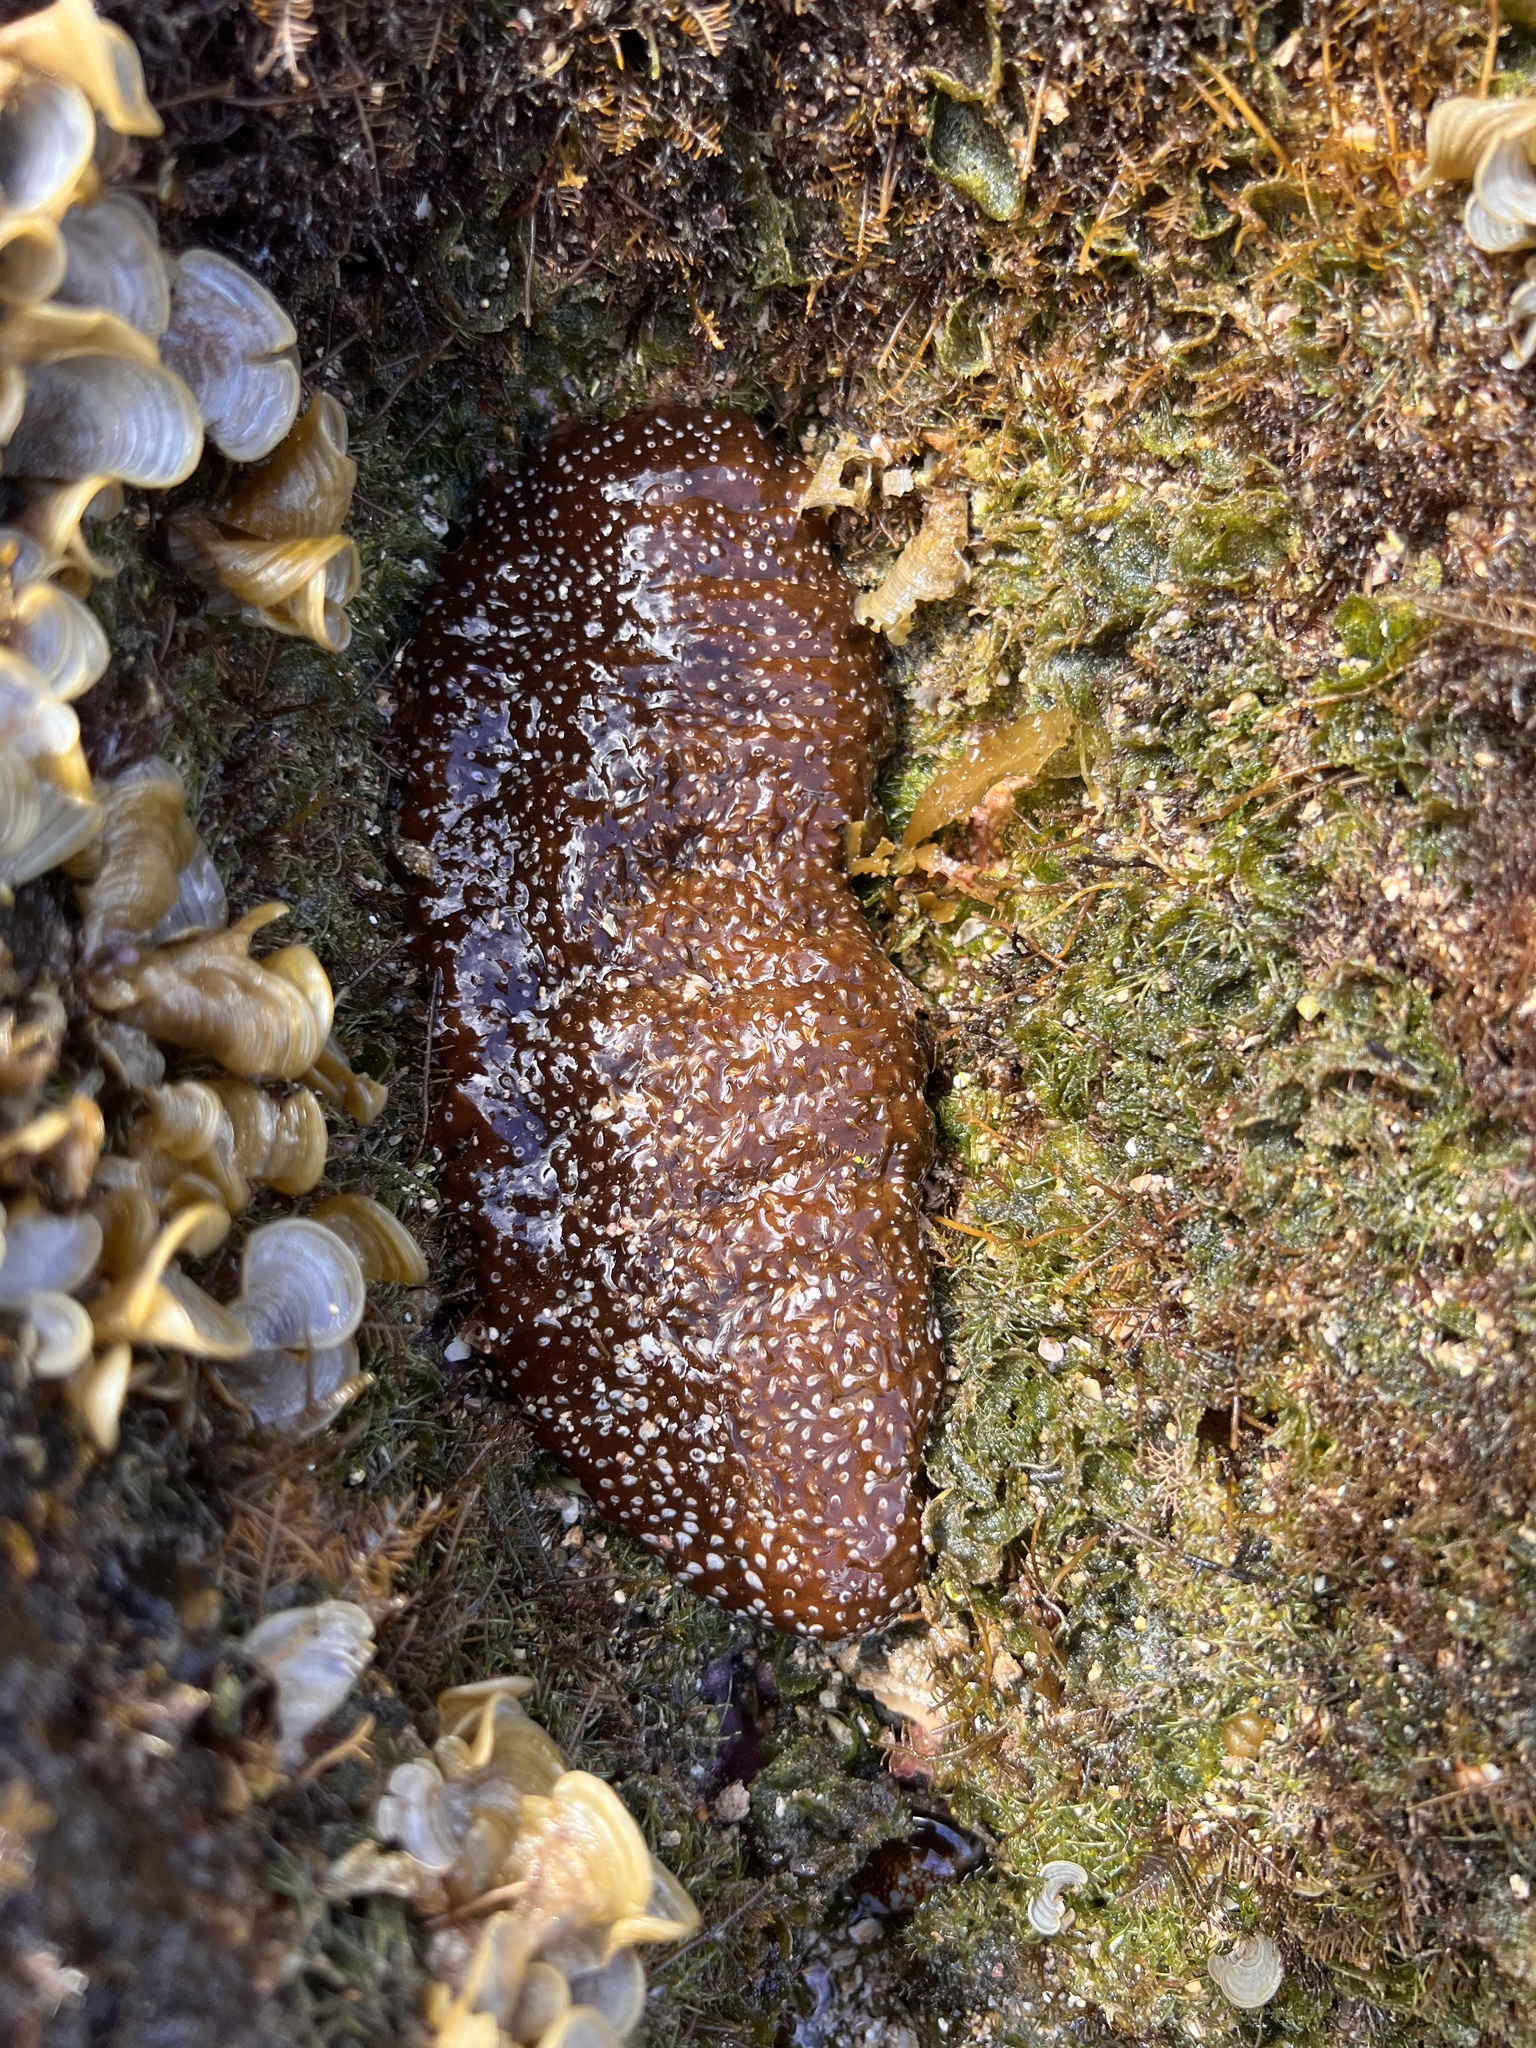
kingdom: Animalia
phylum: Echinodermata
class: Holothuroidea
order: Holothuriida
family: Holothuriidae
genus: Actinopyga
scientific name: Actinopyga varians
